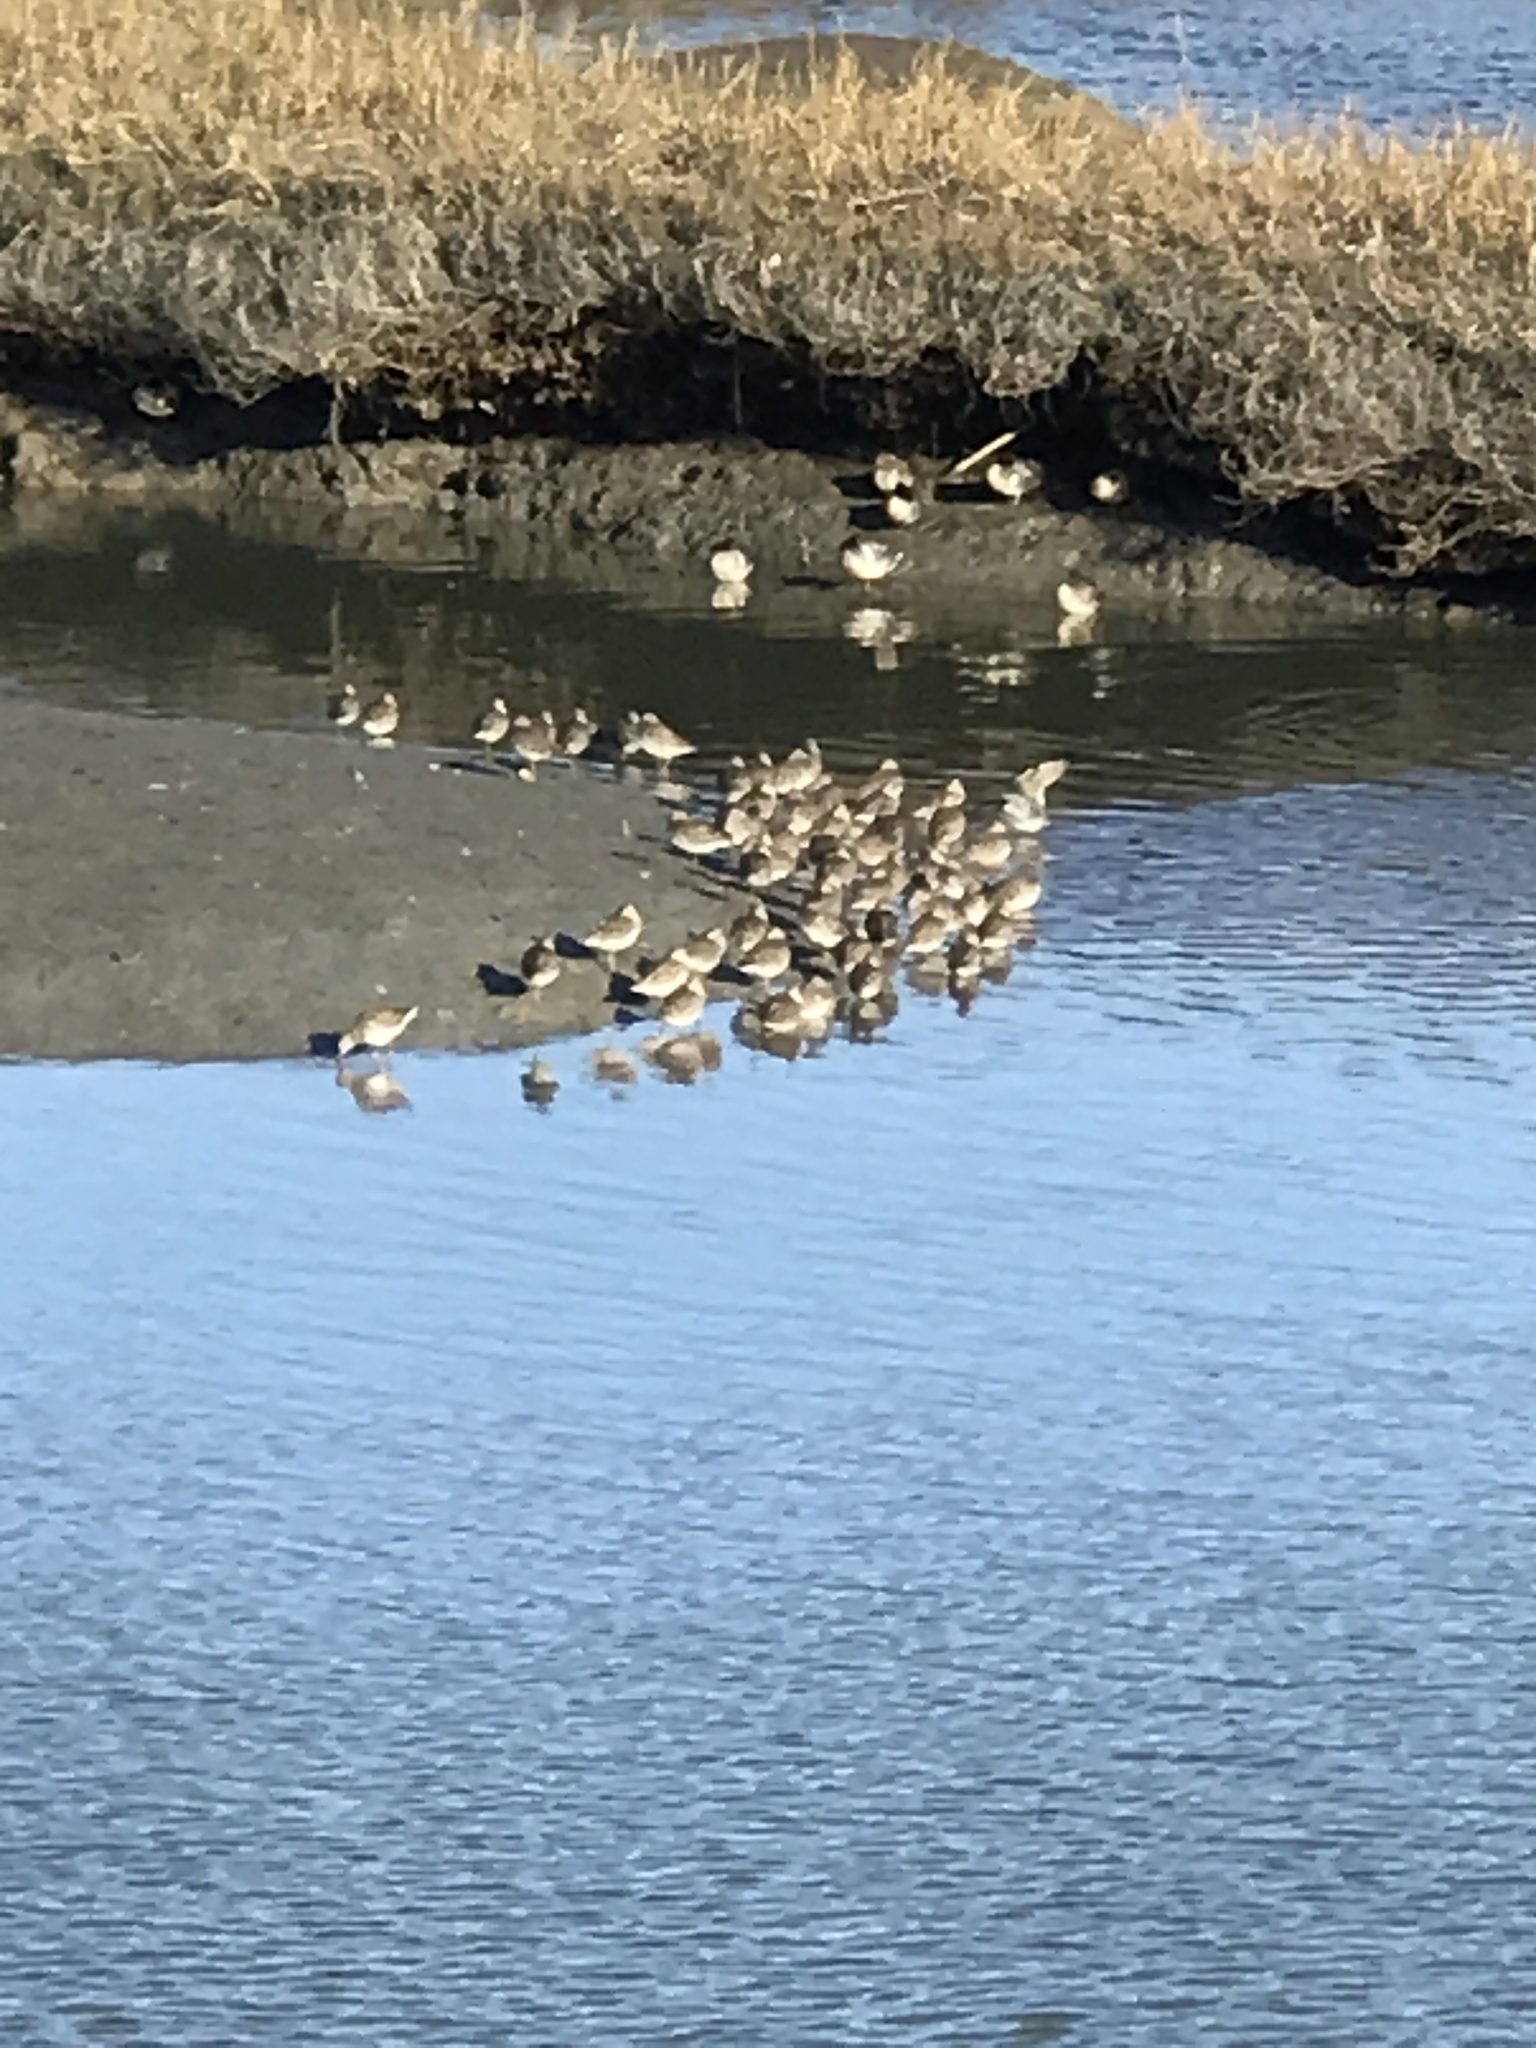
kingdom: Animalia
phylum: Chordata
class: Aves
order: Charadriiformes
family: Scolopacidae
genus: Limnodromus
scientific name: Limnodromus
